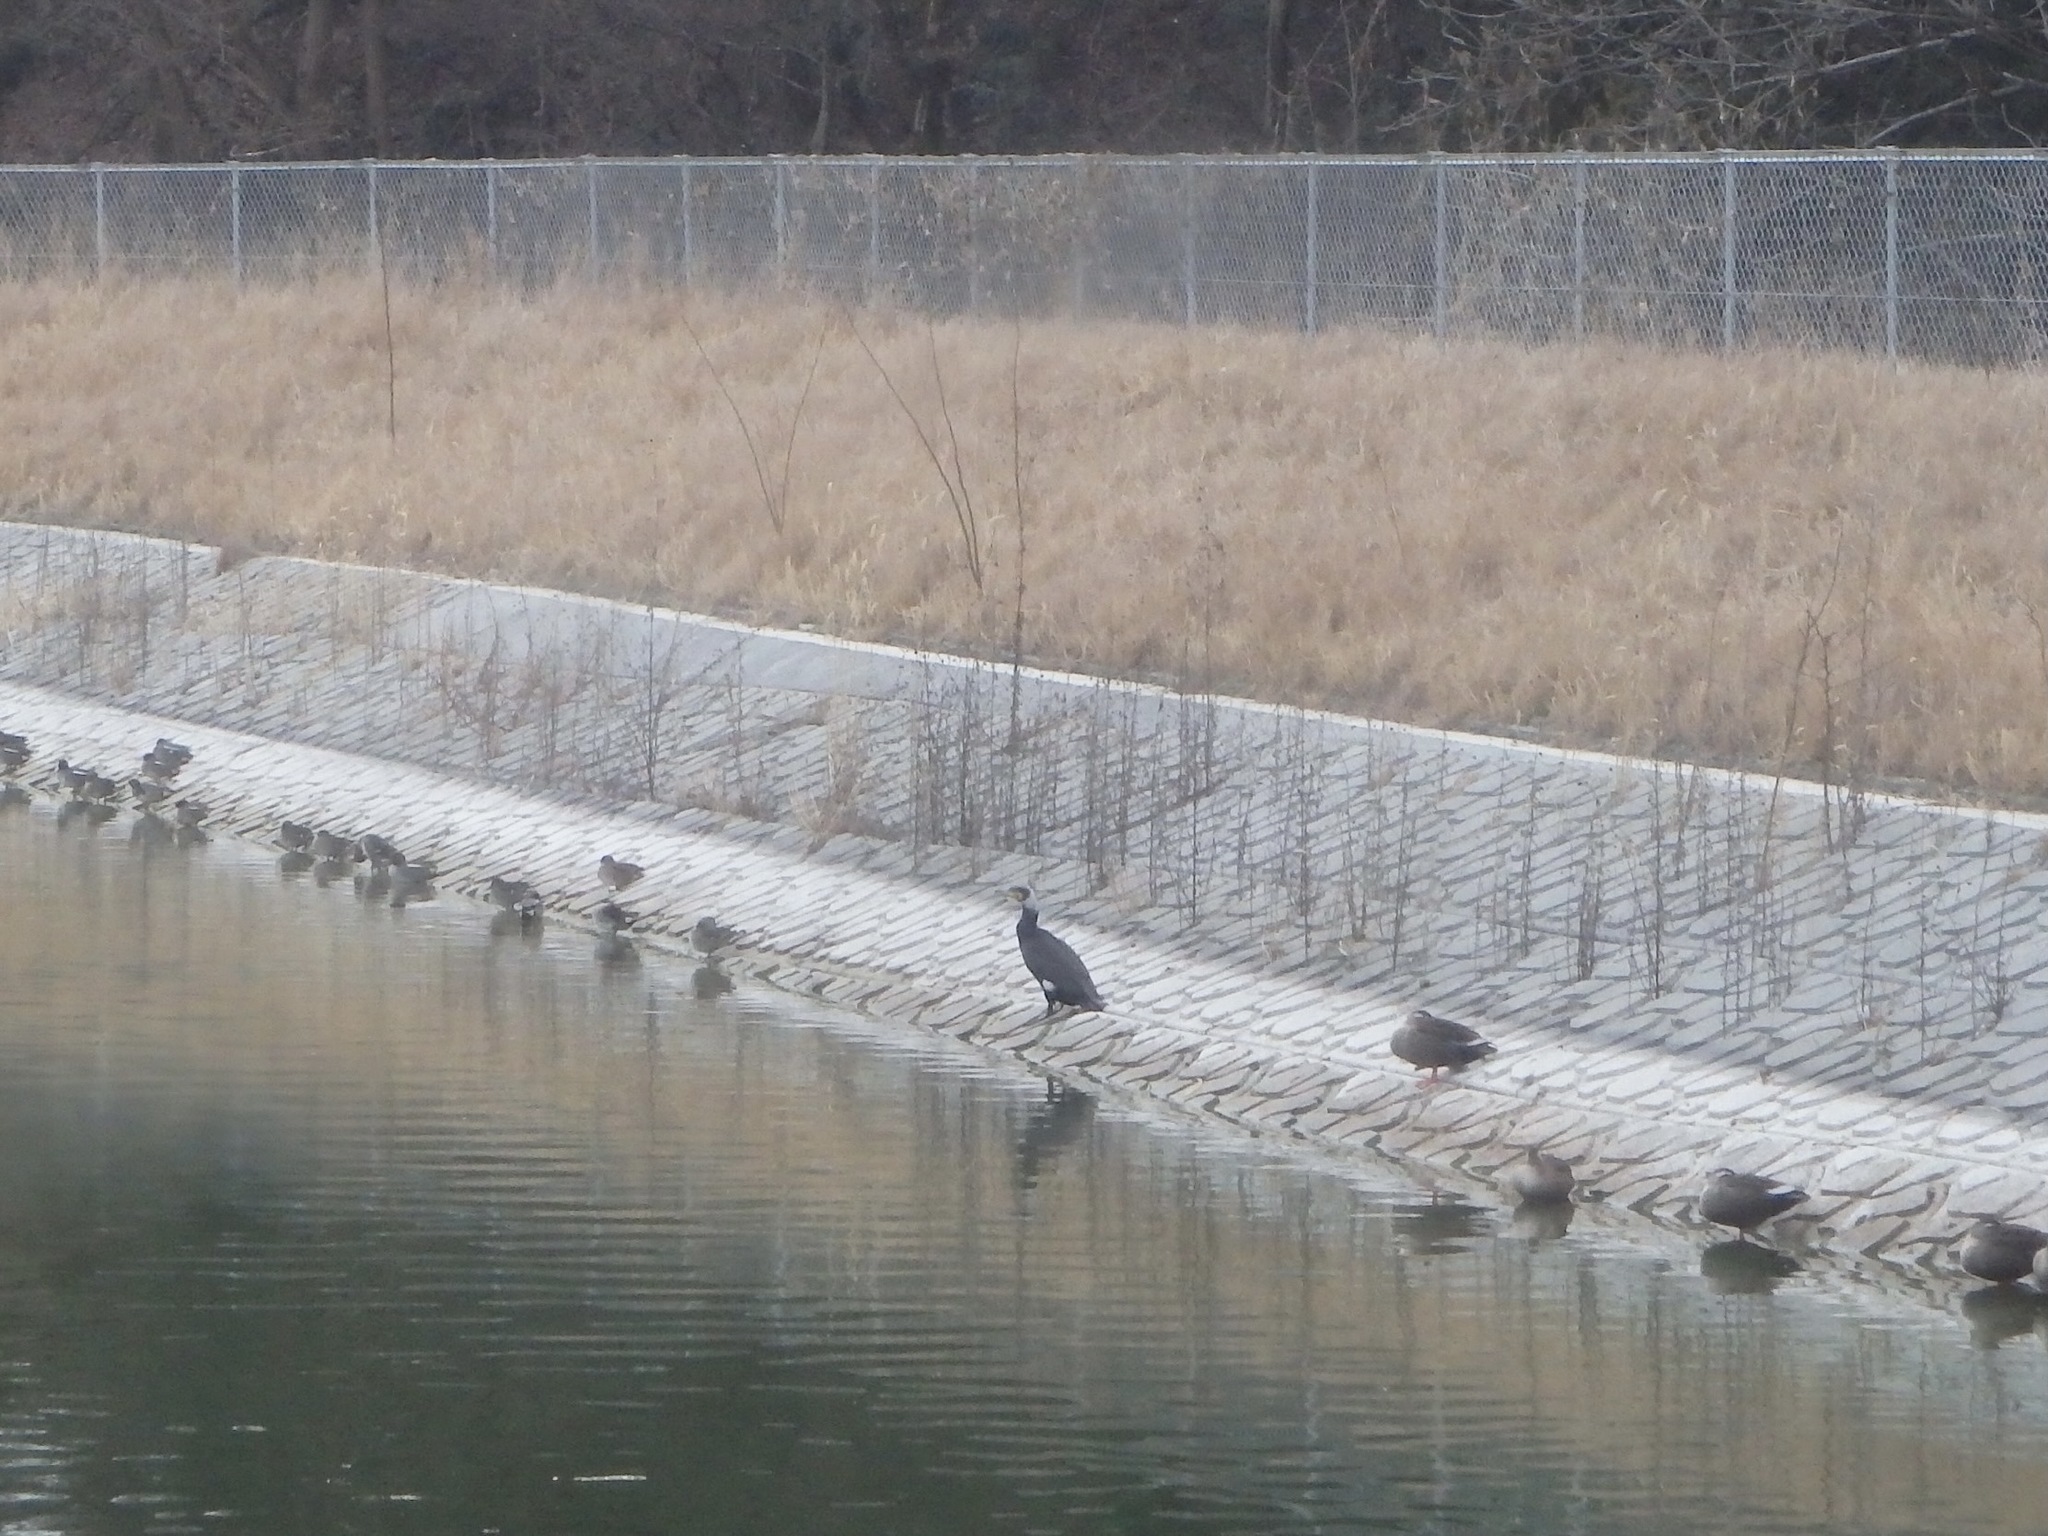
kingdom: Animalia
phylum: Chordata
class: Aves
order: Suliformes
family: Phalacrocoracidae
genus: Phalacrocorax
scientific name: Phalacrocorax carbo
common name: Great cormorant
